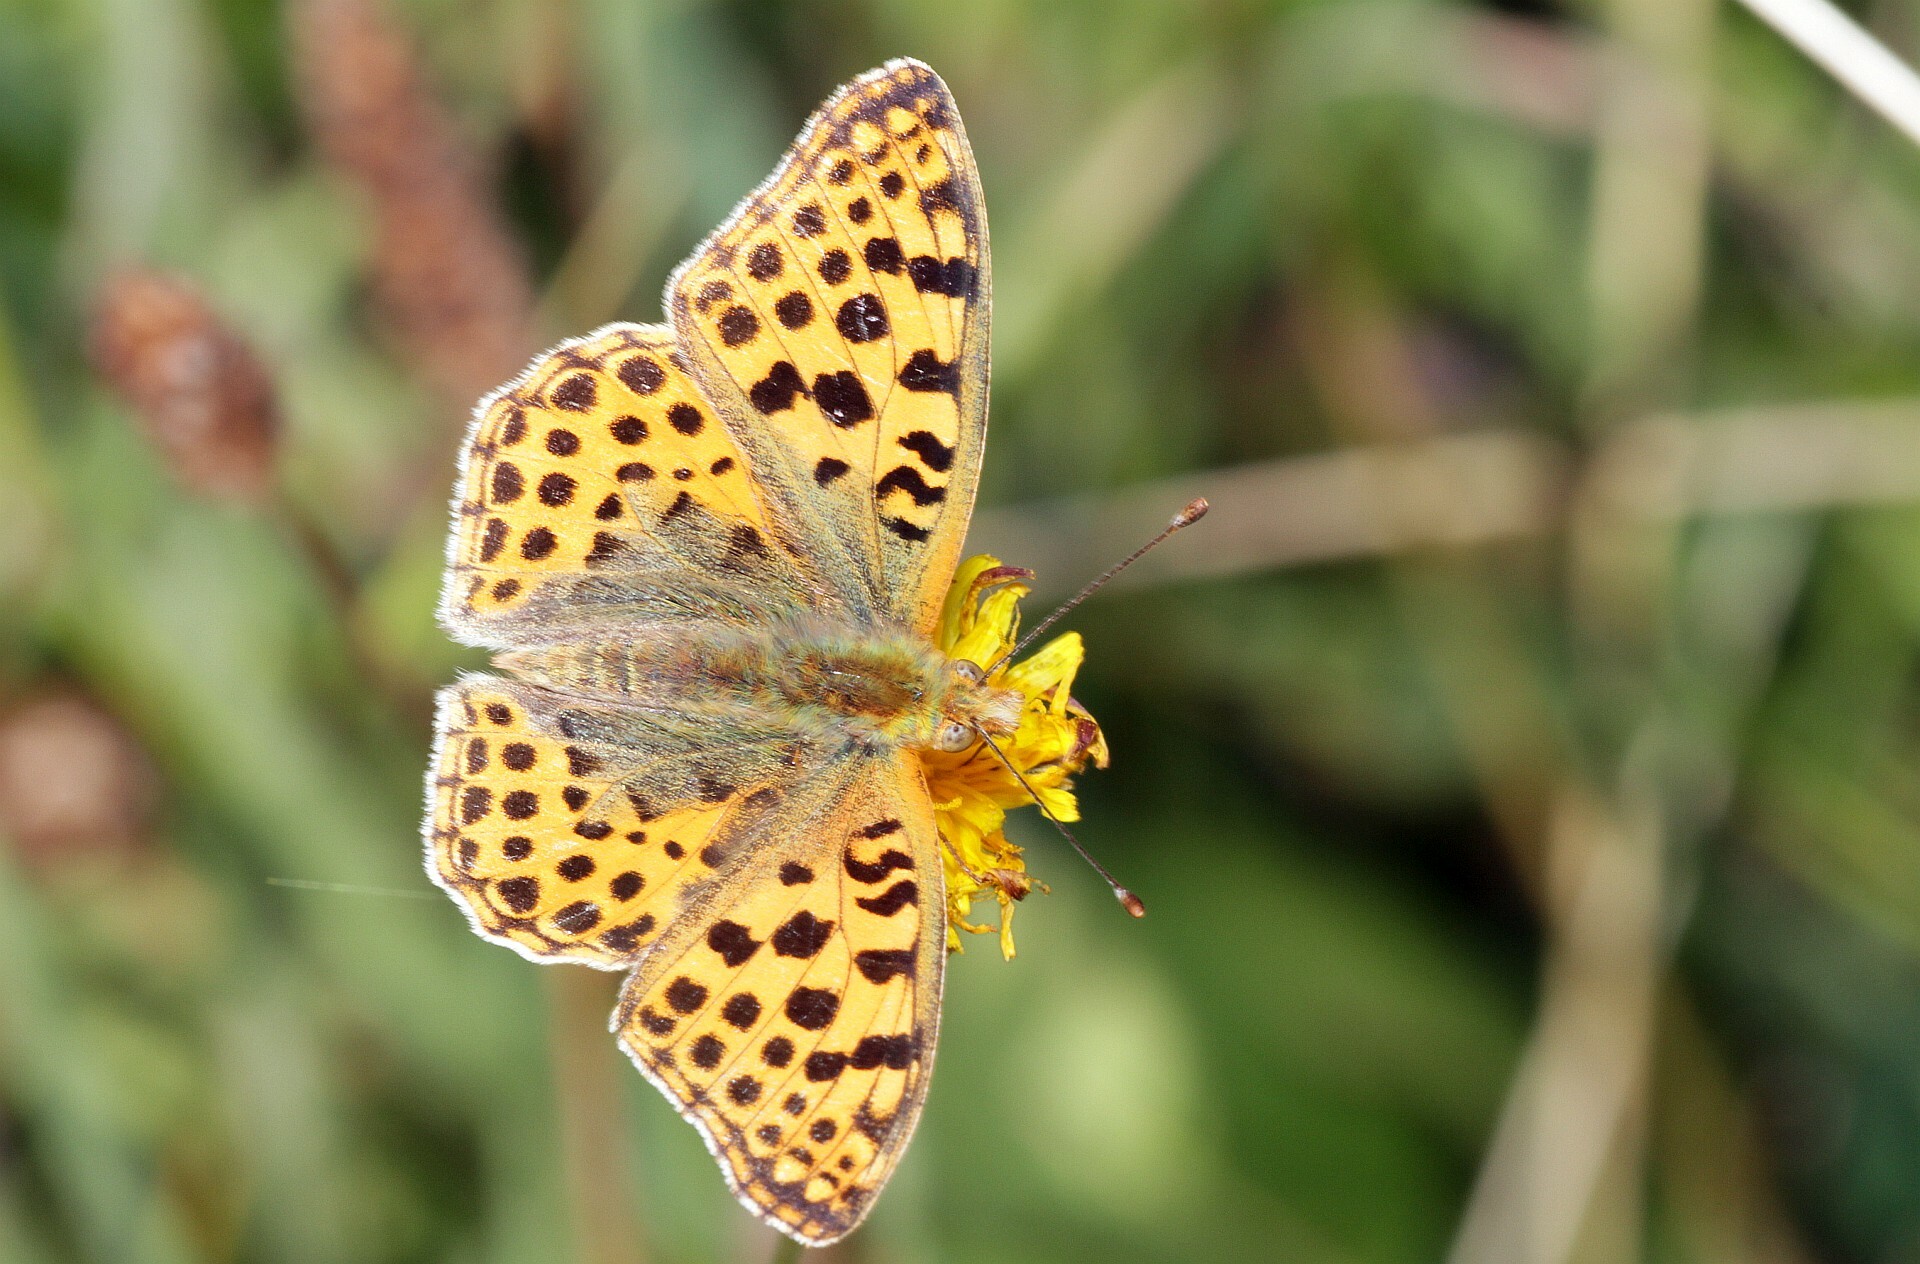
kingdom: Animalia
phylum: Arthropoda
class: Insecta
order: Lepidoptera
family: Nymphalidae
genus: Issoria
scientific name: Issoria lathonia
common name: Queen of spain fritillary
